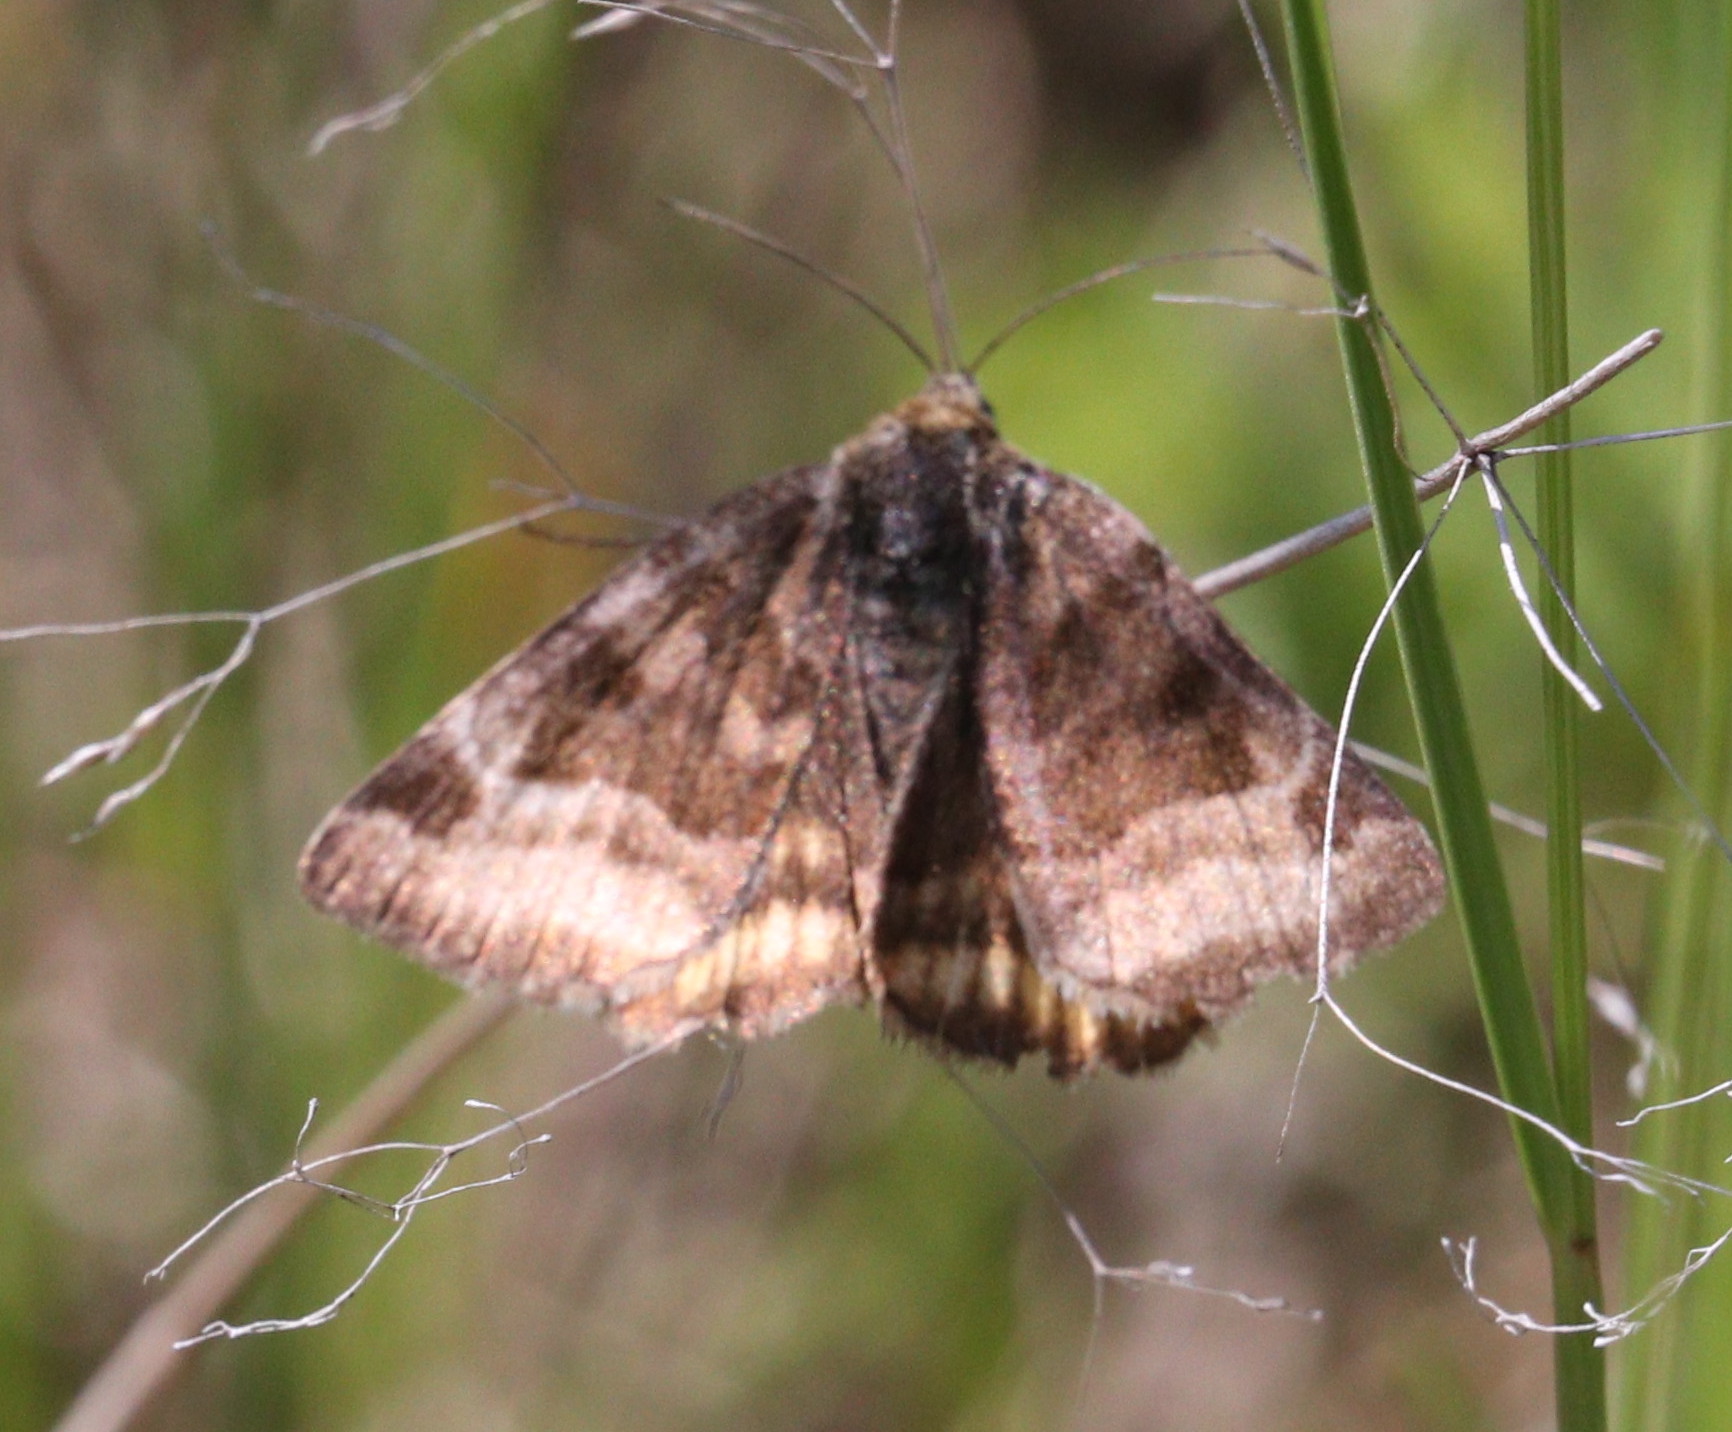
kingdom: Animalia
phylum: Arthropoda
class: Insecta
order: Lepidoptera
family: Erebidae
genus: Euclidia
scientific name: Euclidia glyphica
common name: Burnet companion
